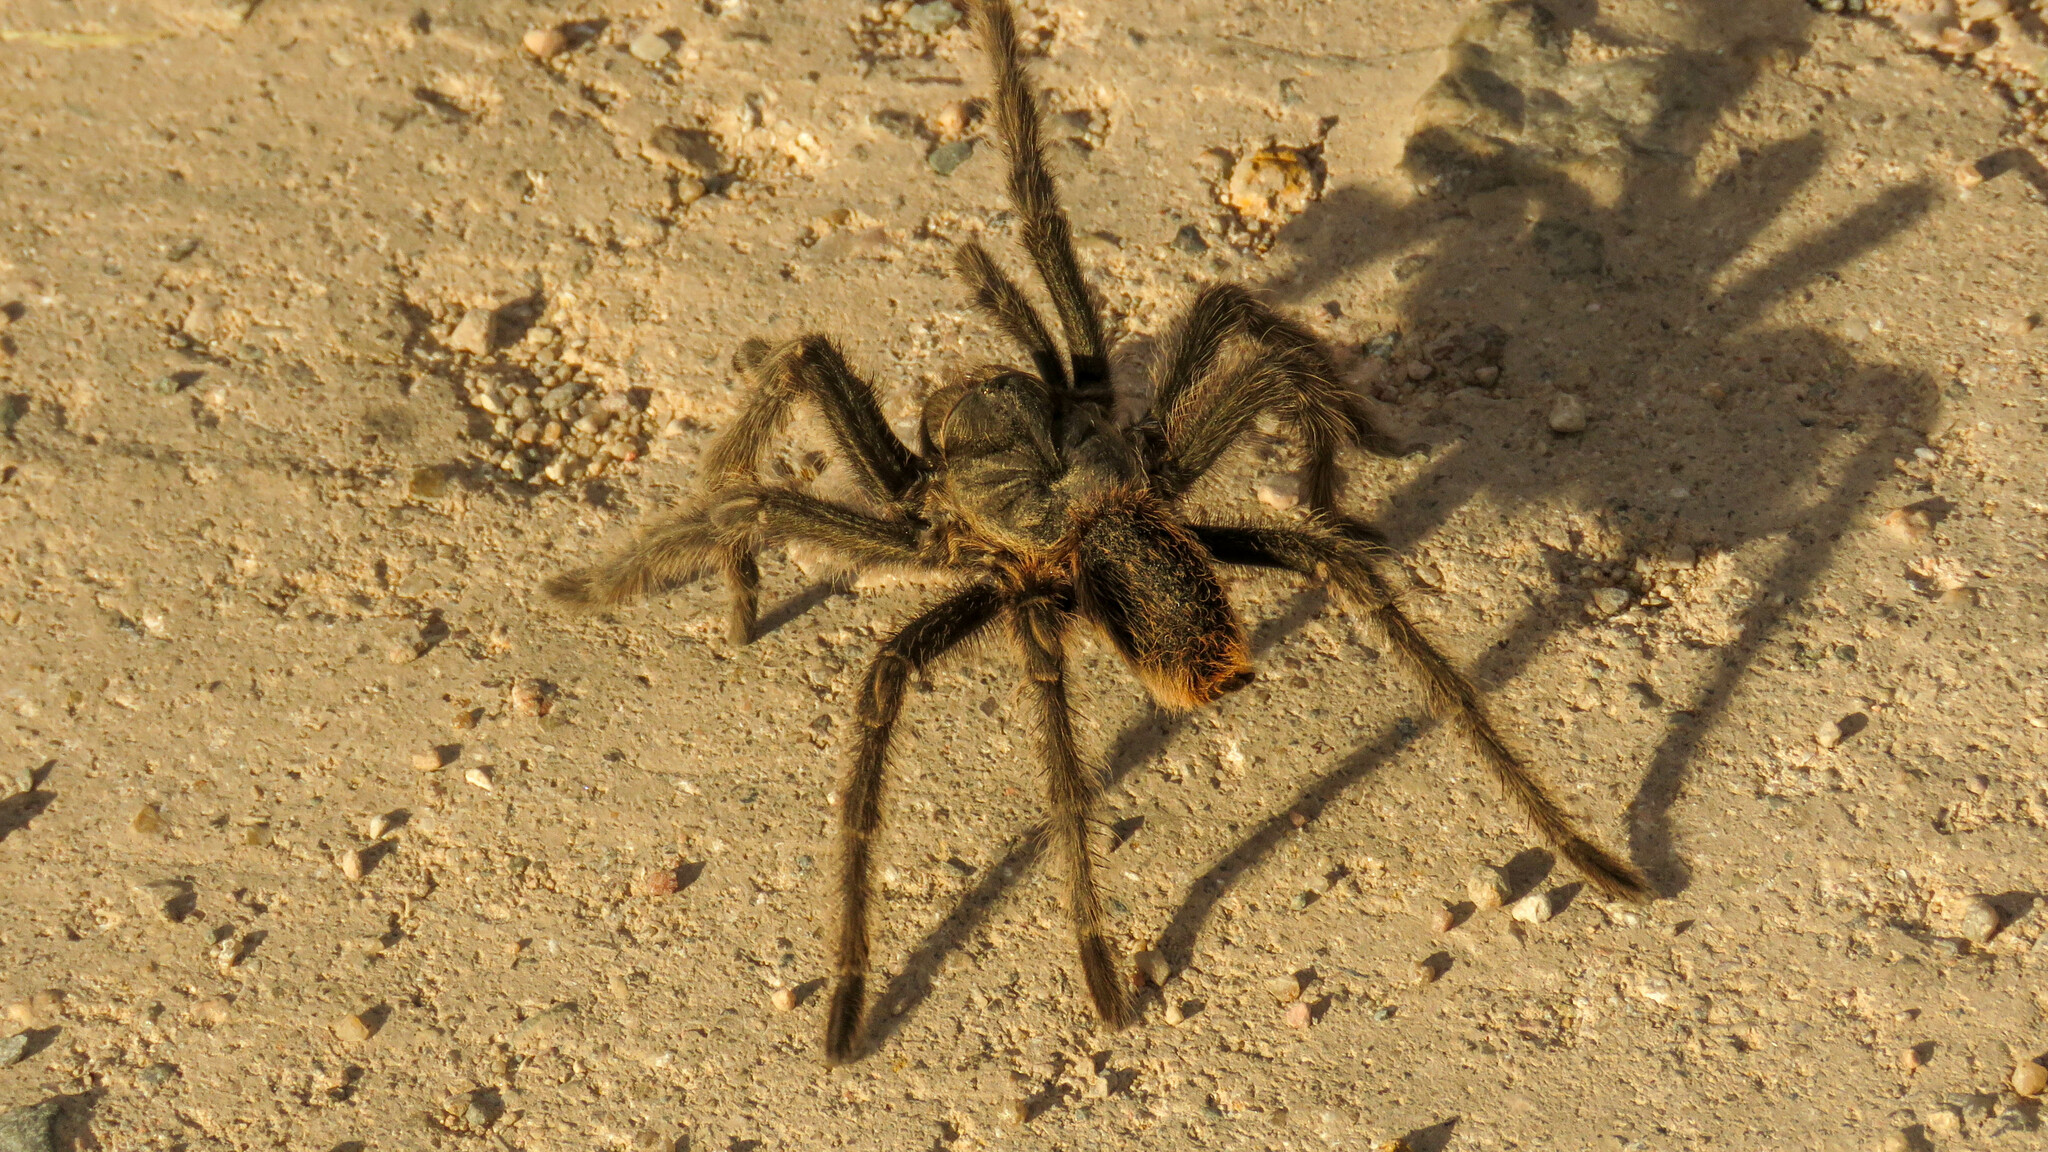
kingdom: Animalia
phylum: Arthropoda
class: Arachnida
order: Araneae
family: Theraphosidae
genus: Grammostola
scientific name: Grammostola doeringi
